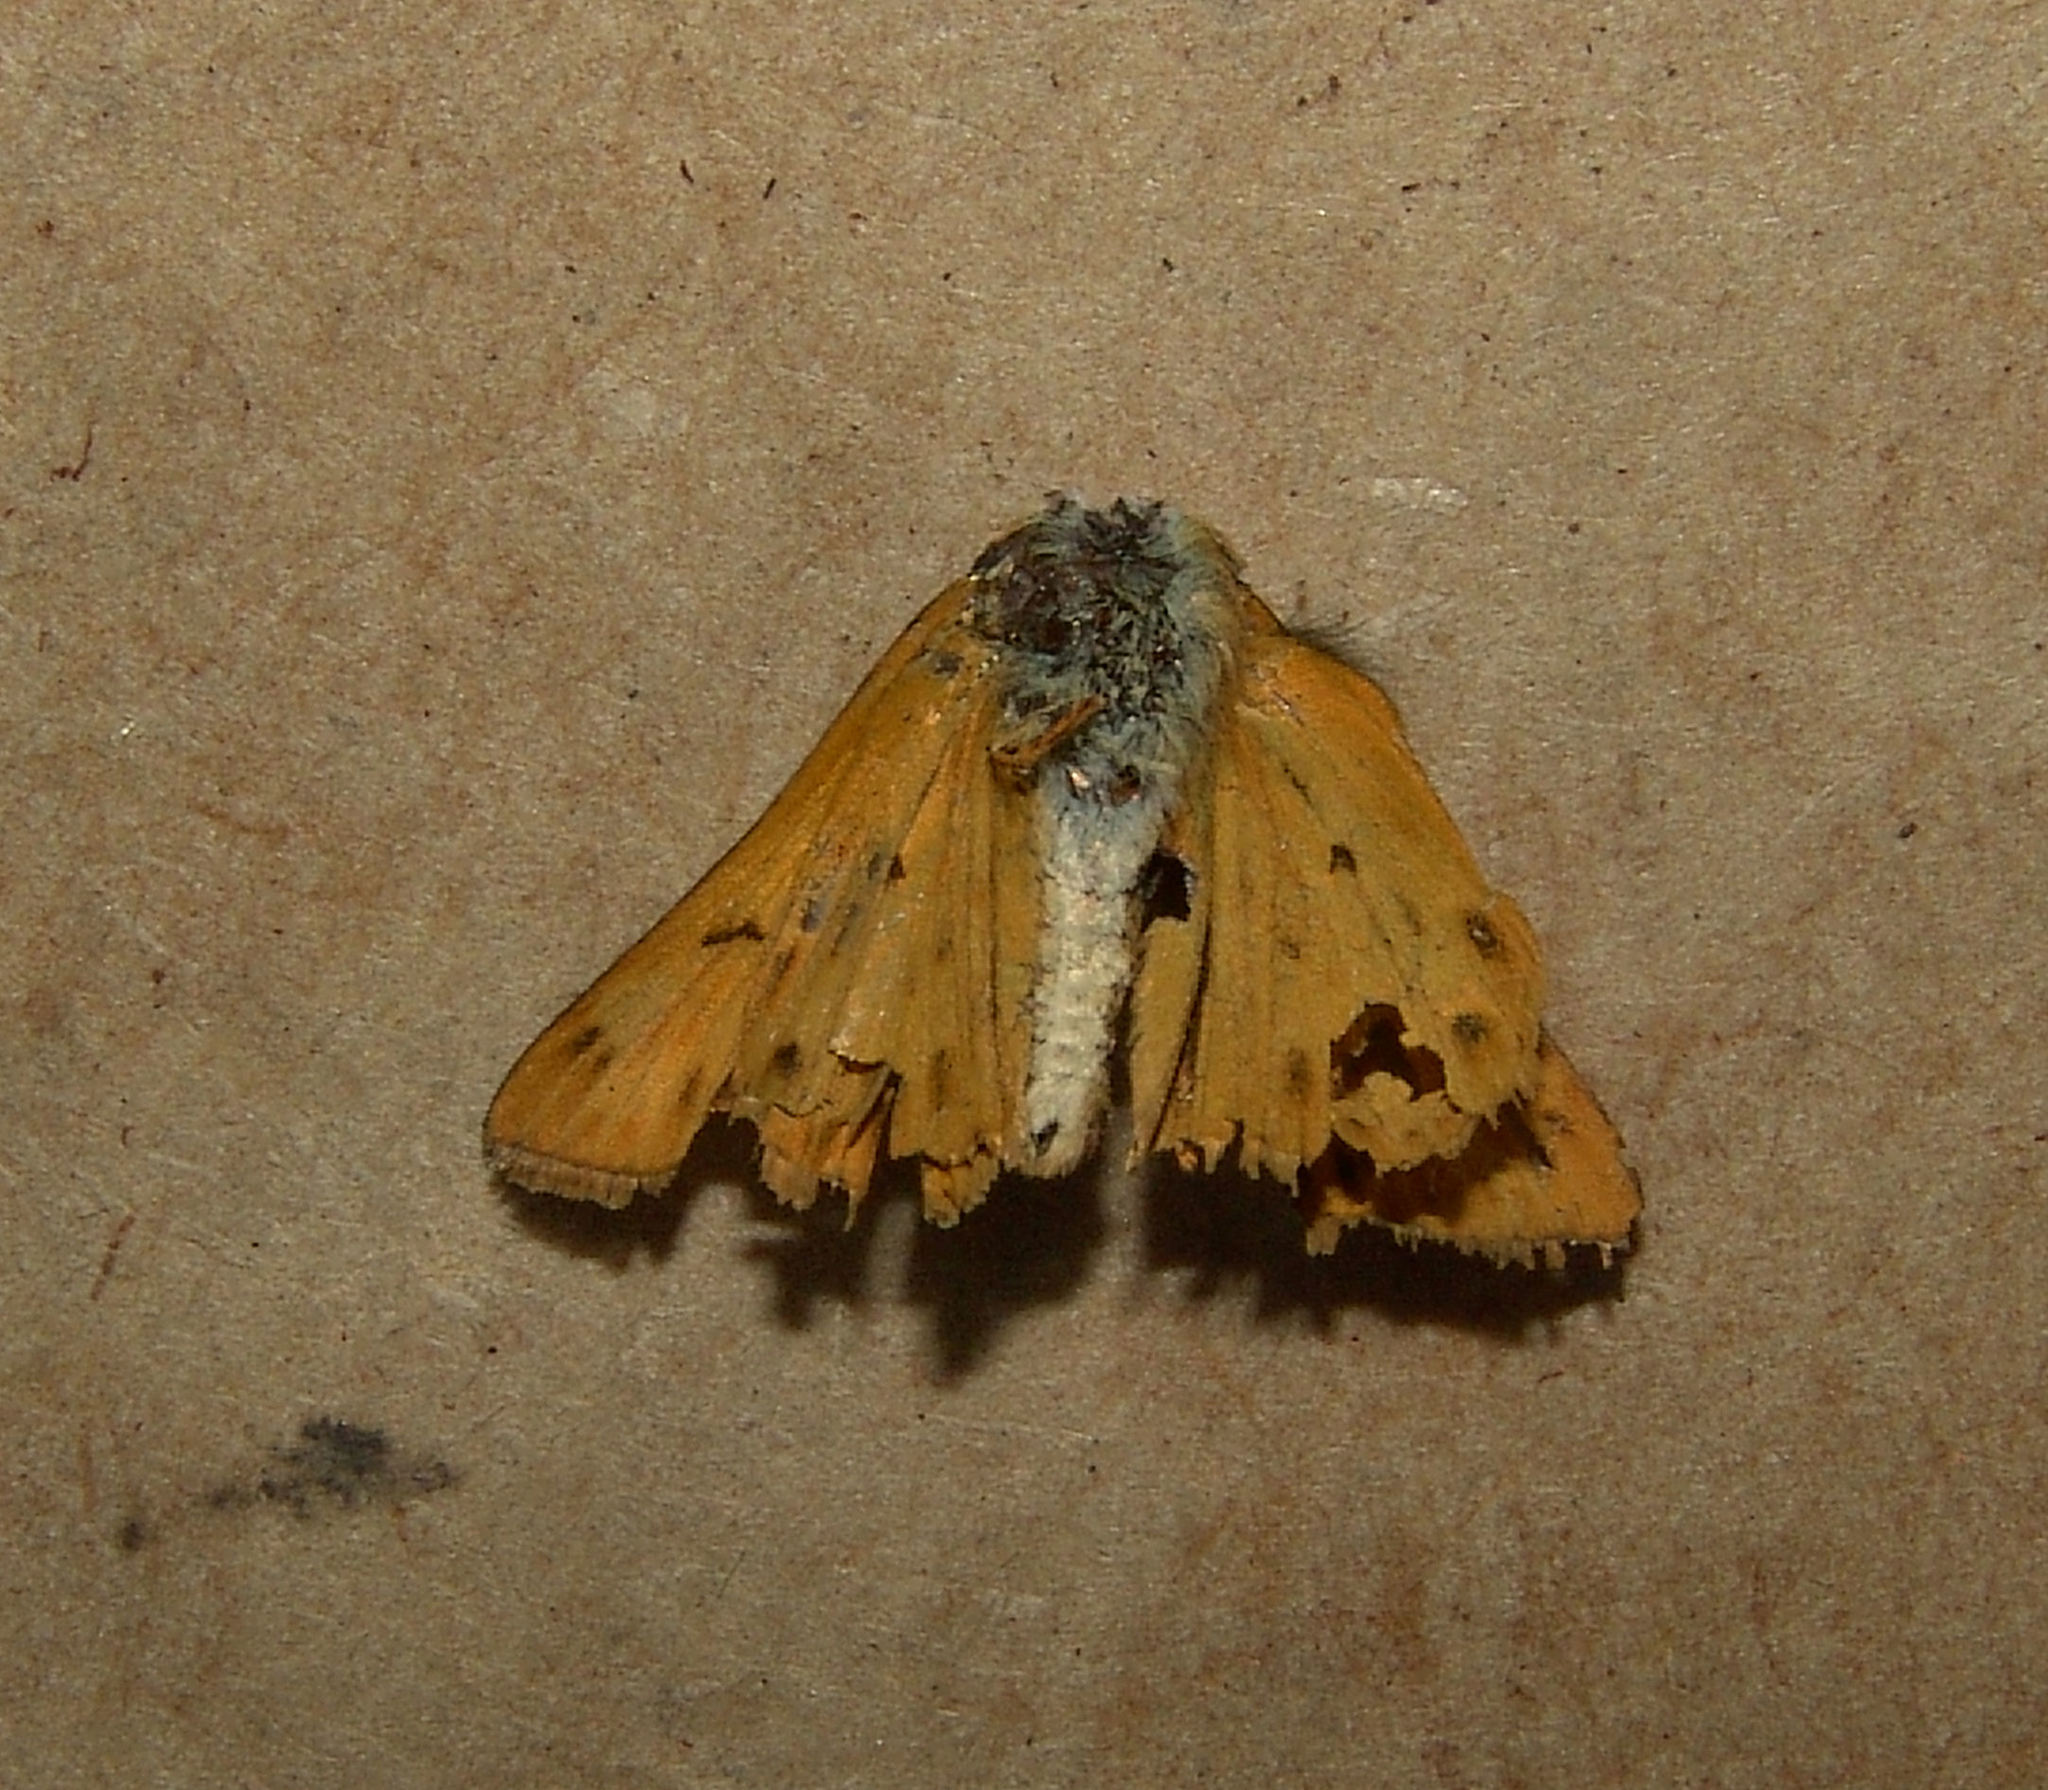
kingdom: Animalia
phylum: Arthropoda
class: Insecta
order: Lepidoptera
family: Hesperiidae
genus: Hylephila
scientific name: Hylephila phyleus
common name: Fiery skipper
